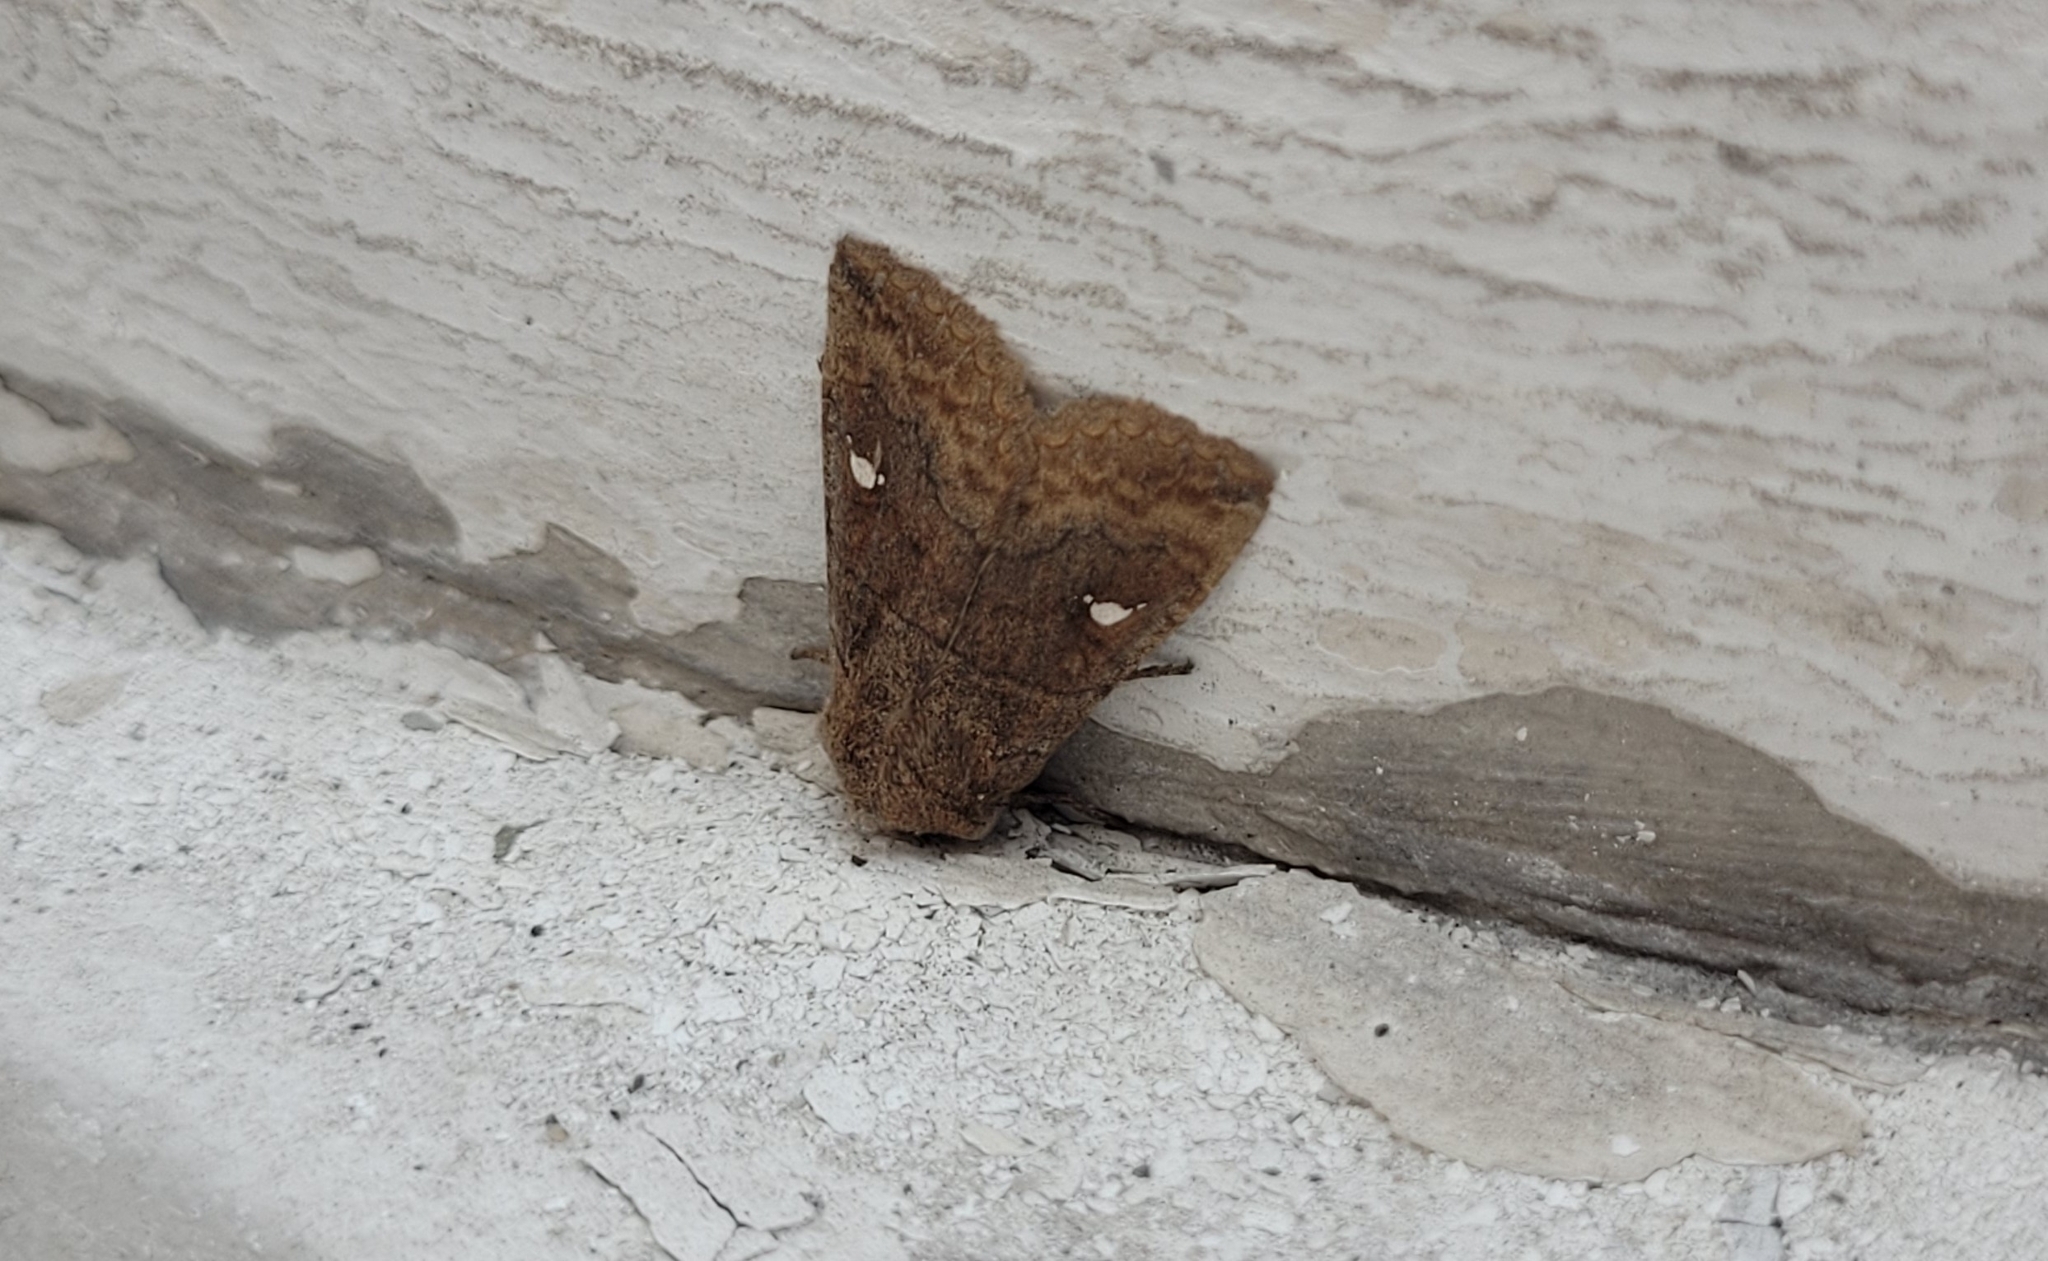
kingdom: Animalia
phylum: Arthropoda
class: Insecta
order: Lepidoptera
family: Noctuidae
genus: Eupsilia
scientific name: Eupsilia transversa
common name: Satellite
